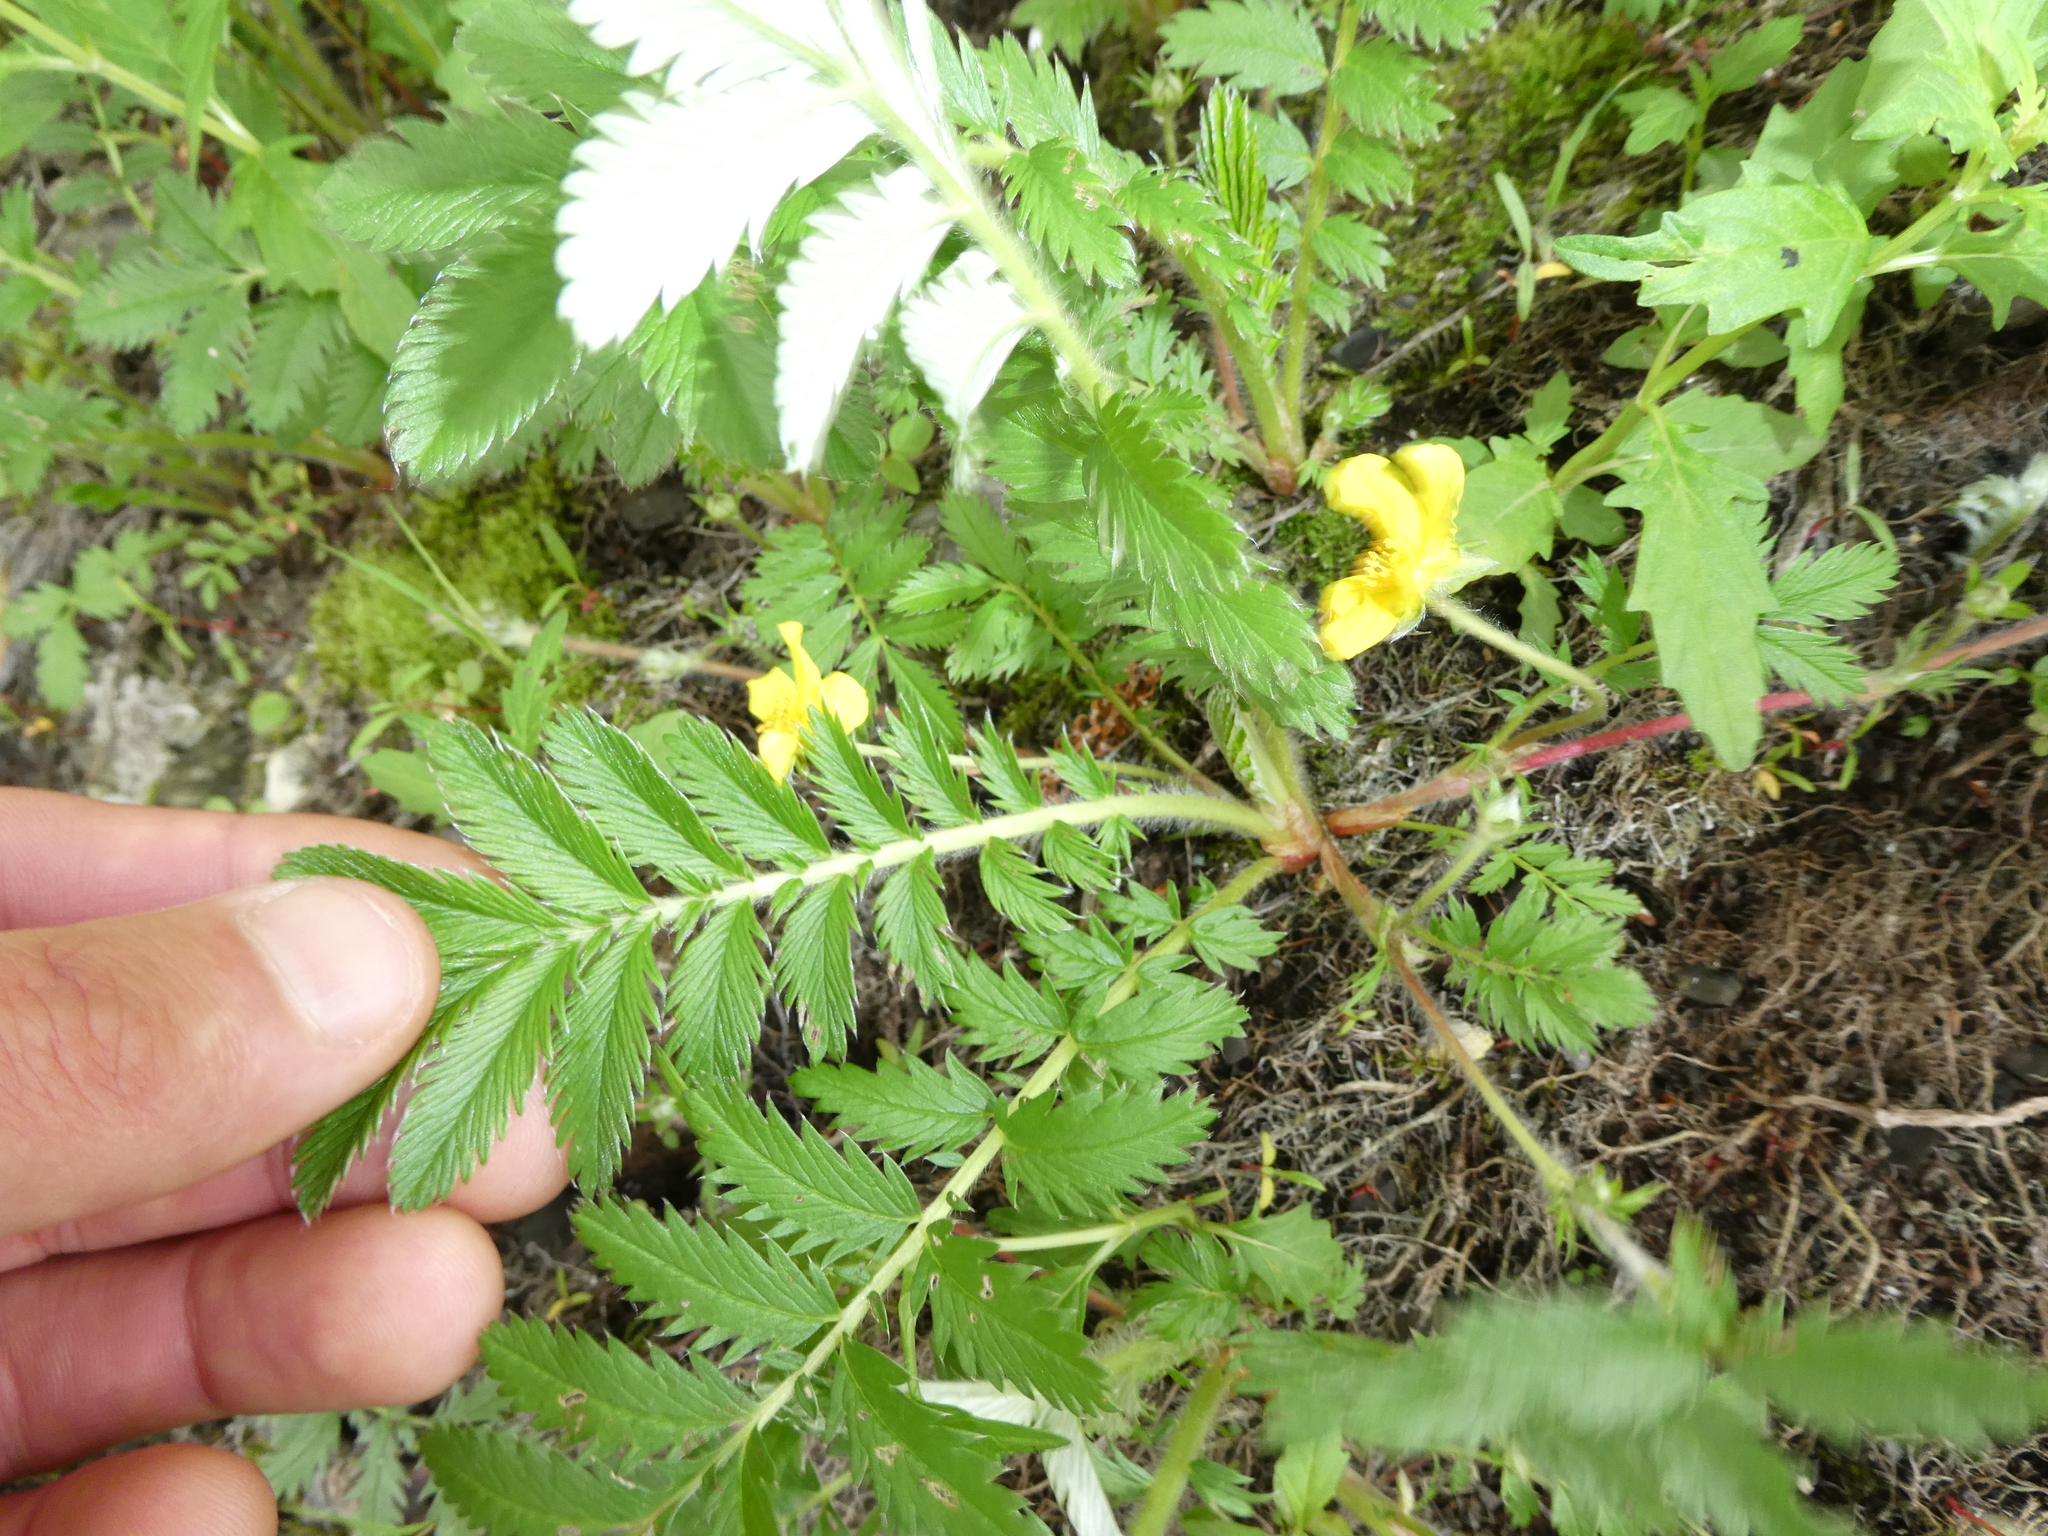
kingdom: Plantae
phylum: Tracheophyta
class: Magnoliopsida
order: Rosales
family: Rosaceae
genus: Argentina
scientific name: Argentina anserina
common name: Common silverweed
